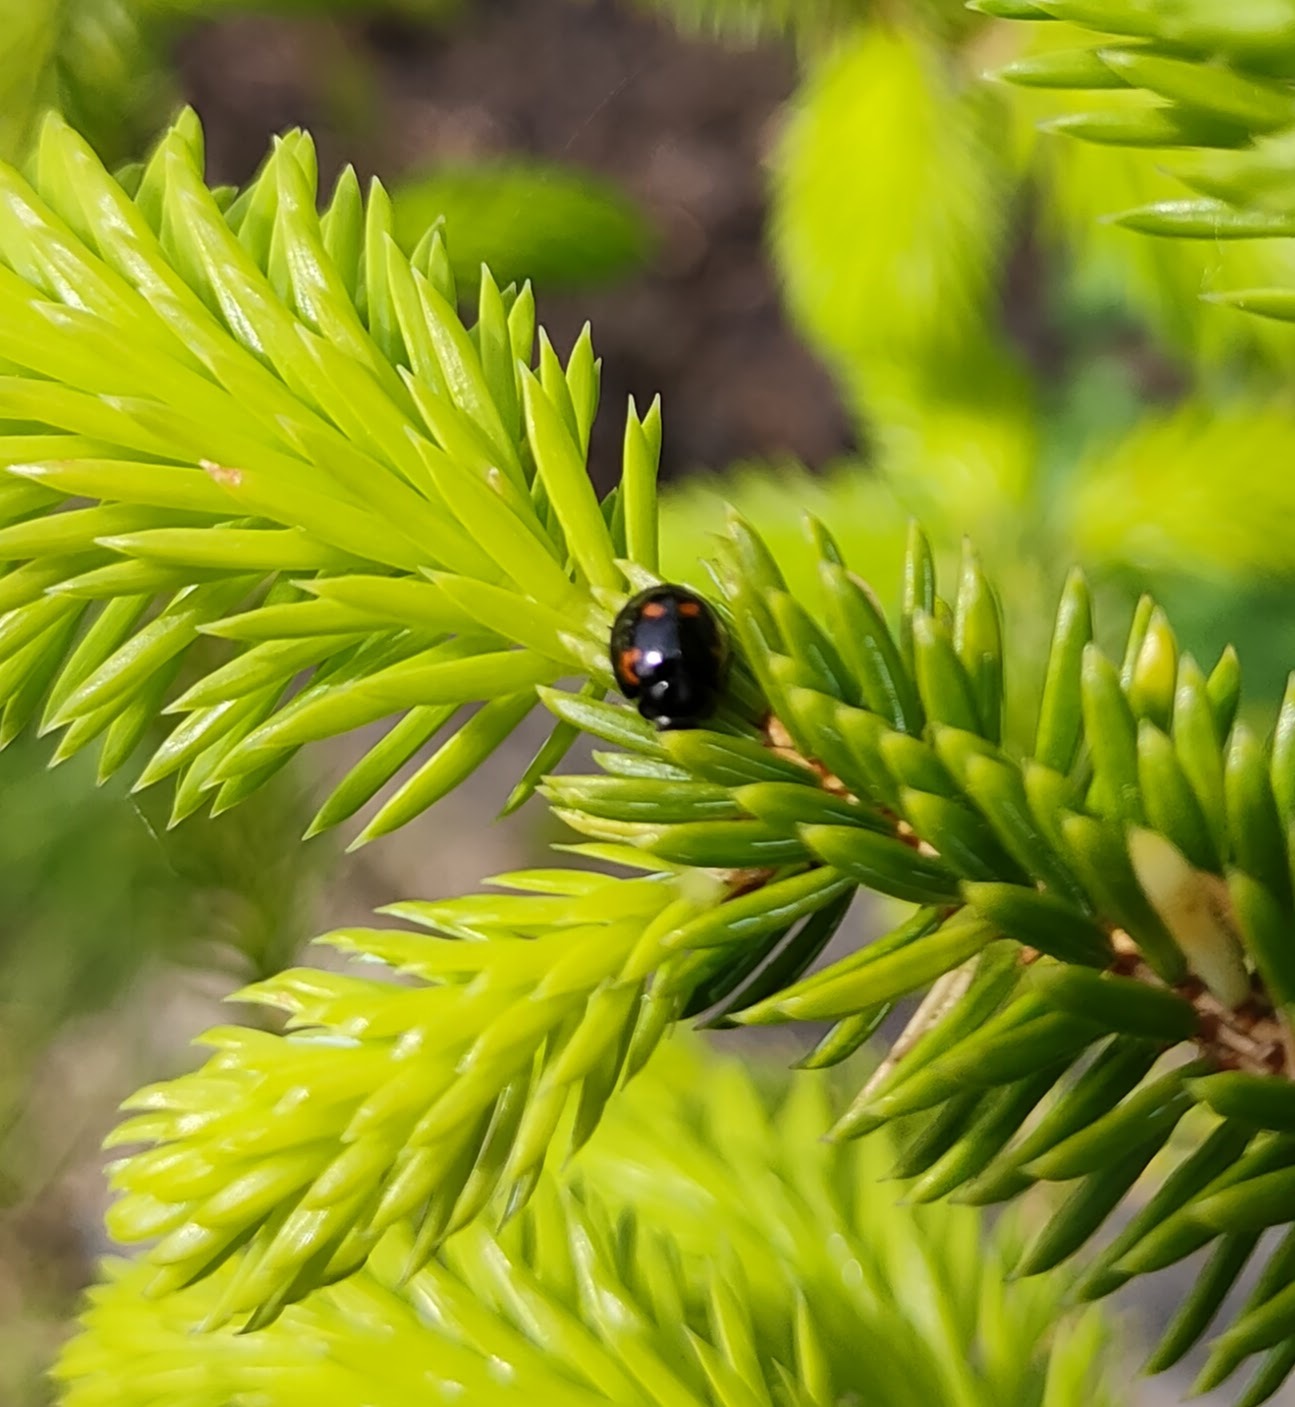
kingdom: Animalia
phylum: Arthropoda
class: Insecta
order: Coleoptera
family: Coccinellidae
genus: Brumus
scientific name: Brumus quadripustulatus
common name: Ladybird beetle
